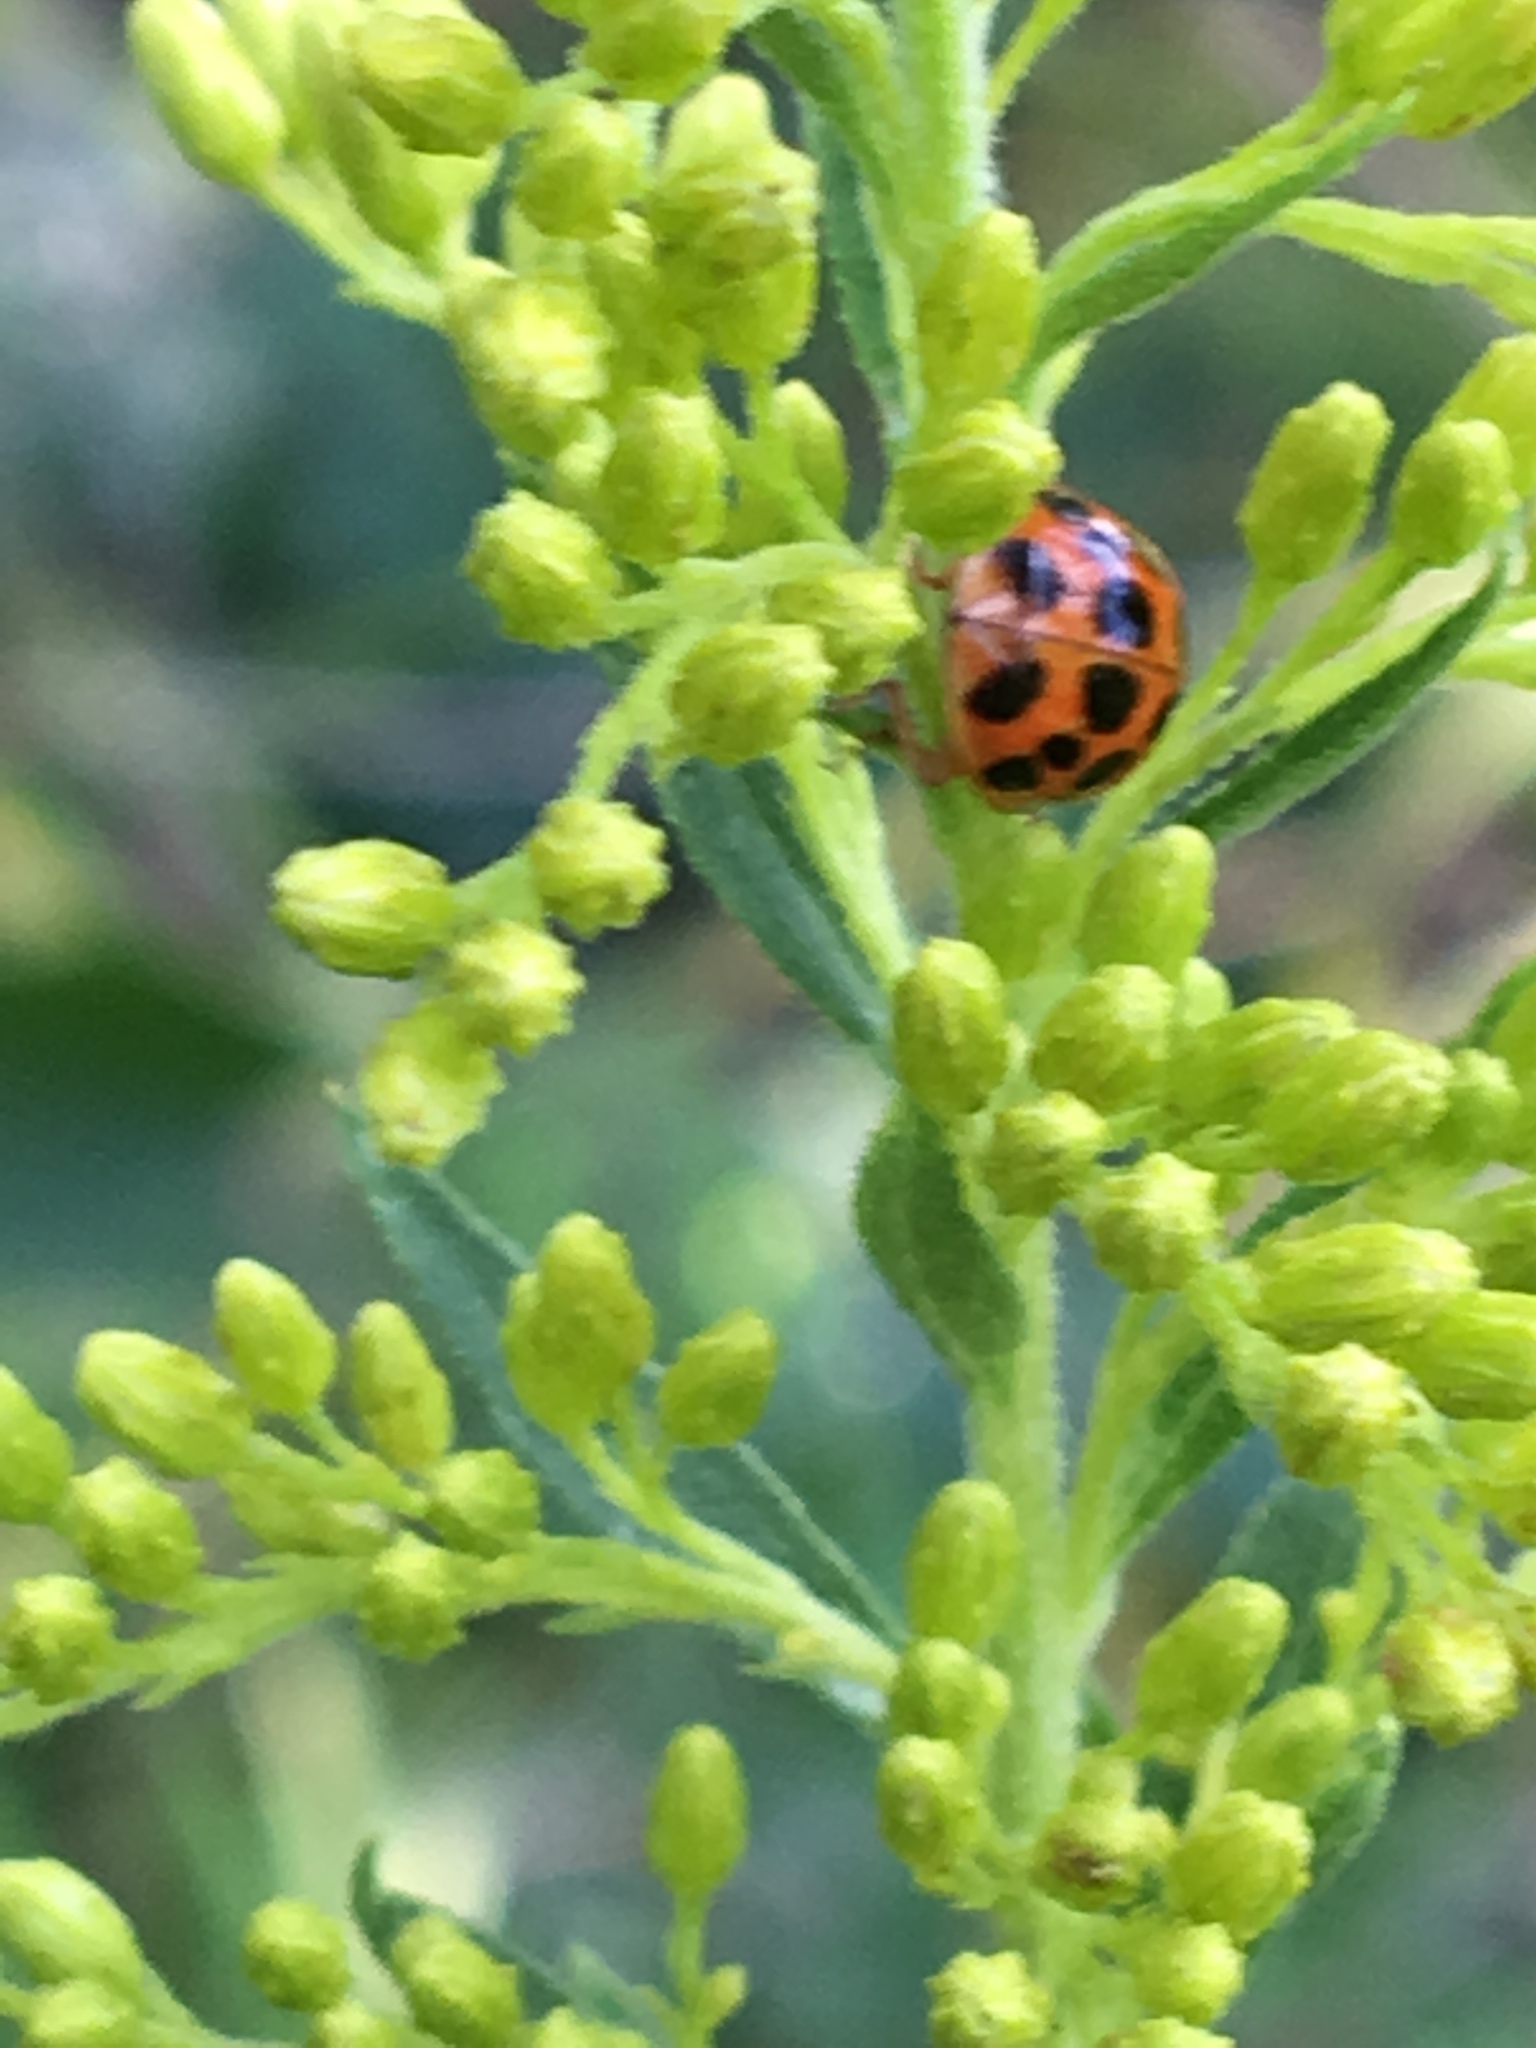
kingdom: Animalia
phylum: Arthropoda
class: Insecta
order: Coleoptera
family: Coccinellidae
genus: Harmonia
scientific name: Harmonia axyridis
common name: Harlequin ladybird
